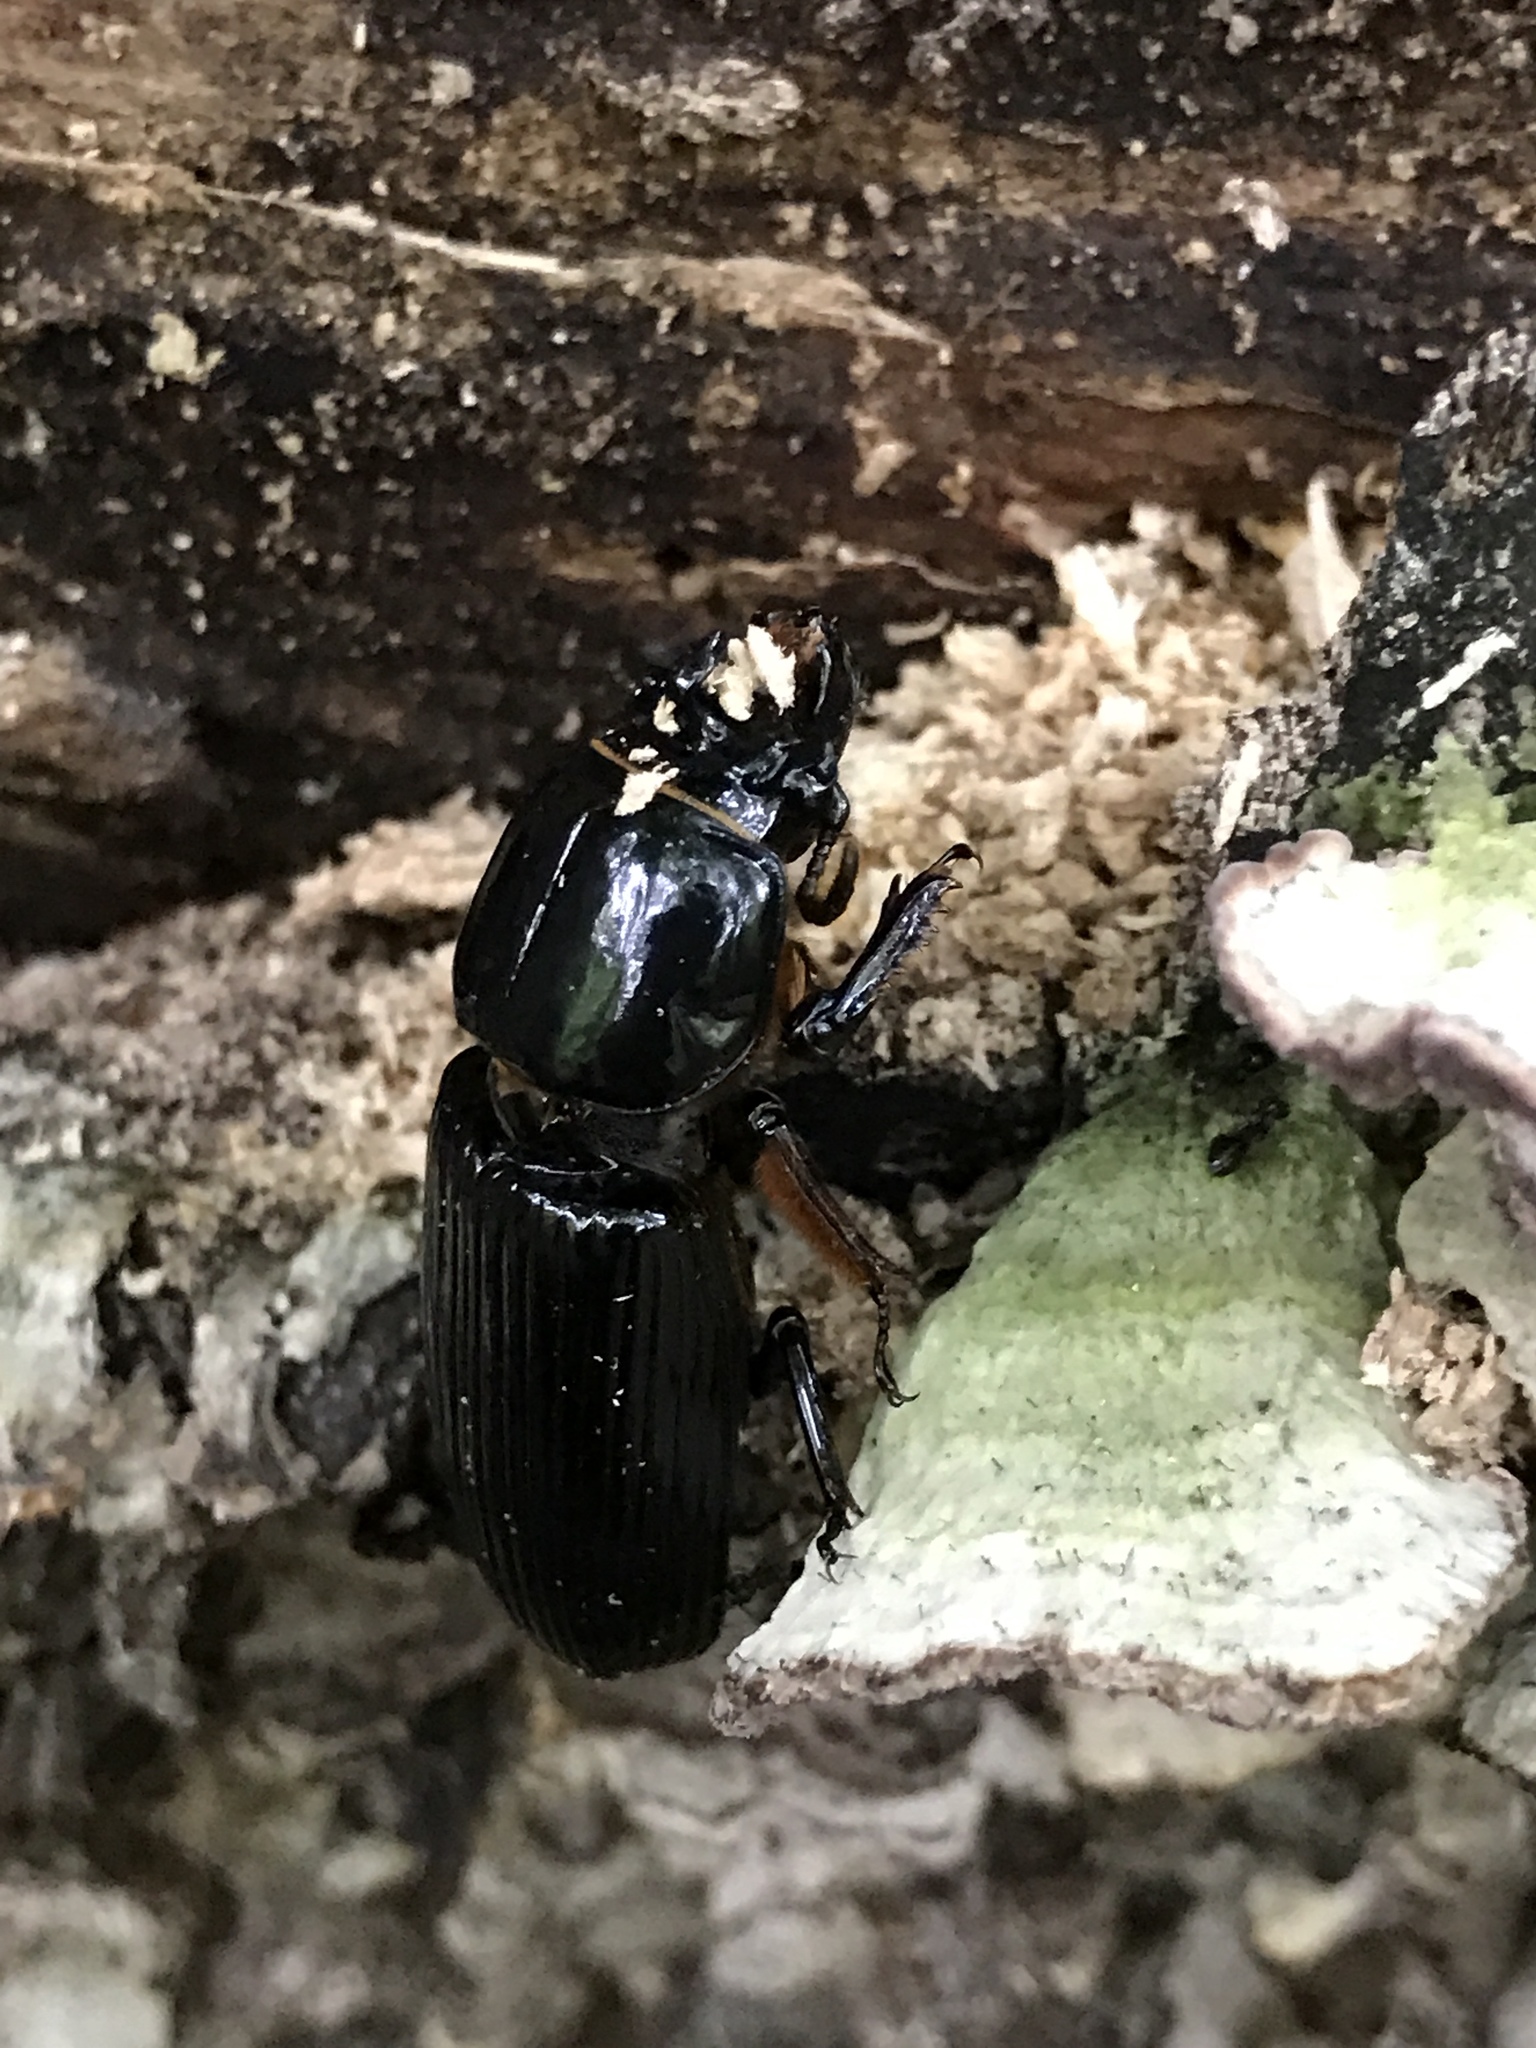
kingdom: Animalia
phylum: Arthropoda
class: Insecta
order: Coleoptera
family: Passalidae
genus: Odontotaenius
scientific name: Odontotaenius disjunctus
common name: Patent leather beetle
